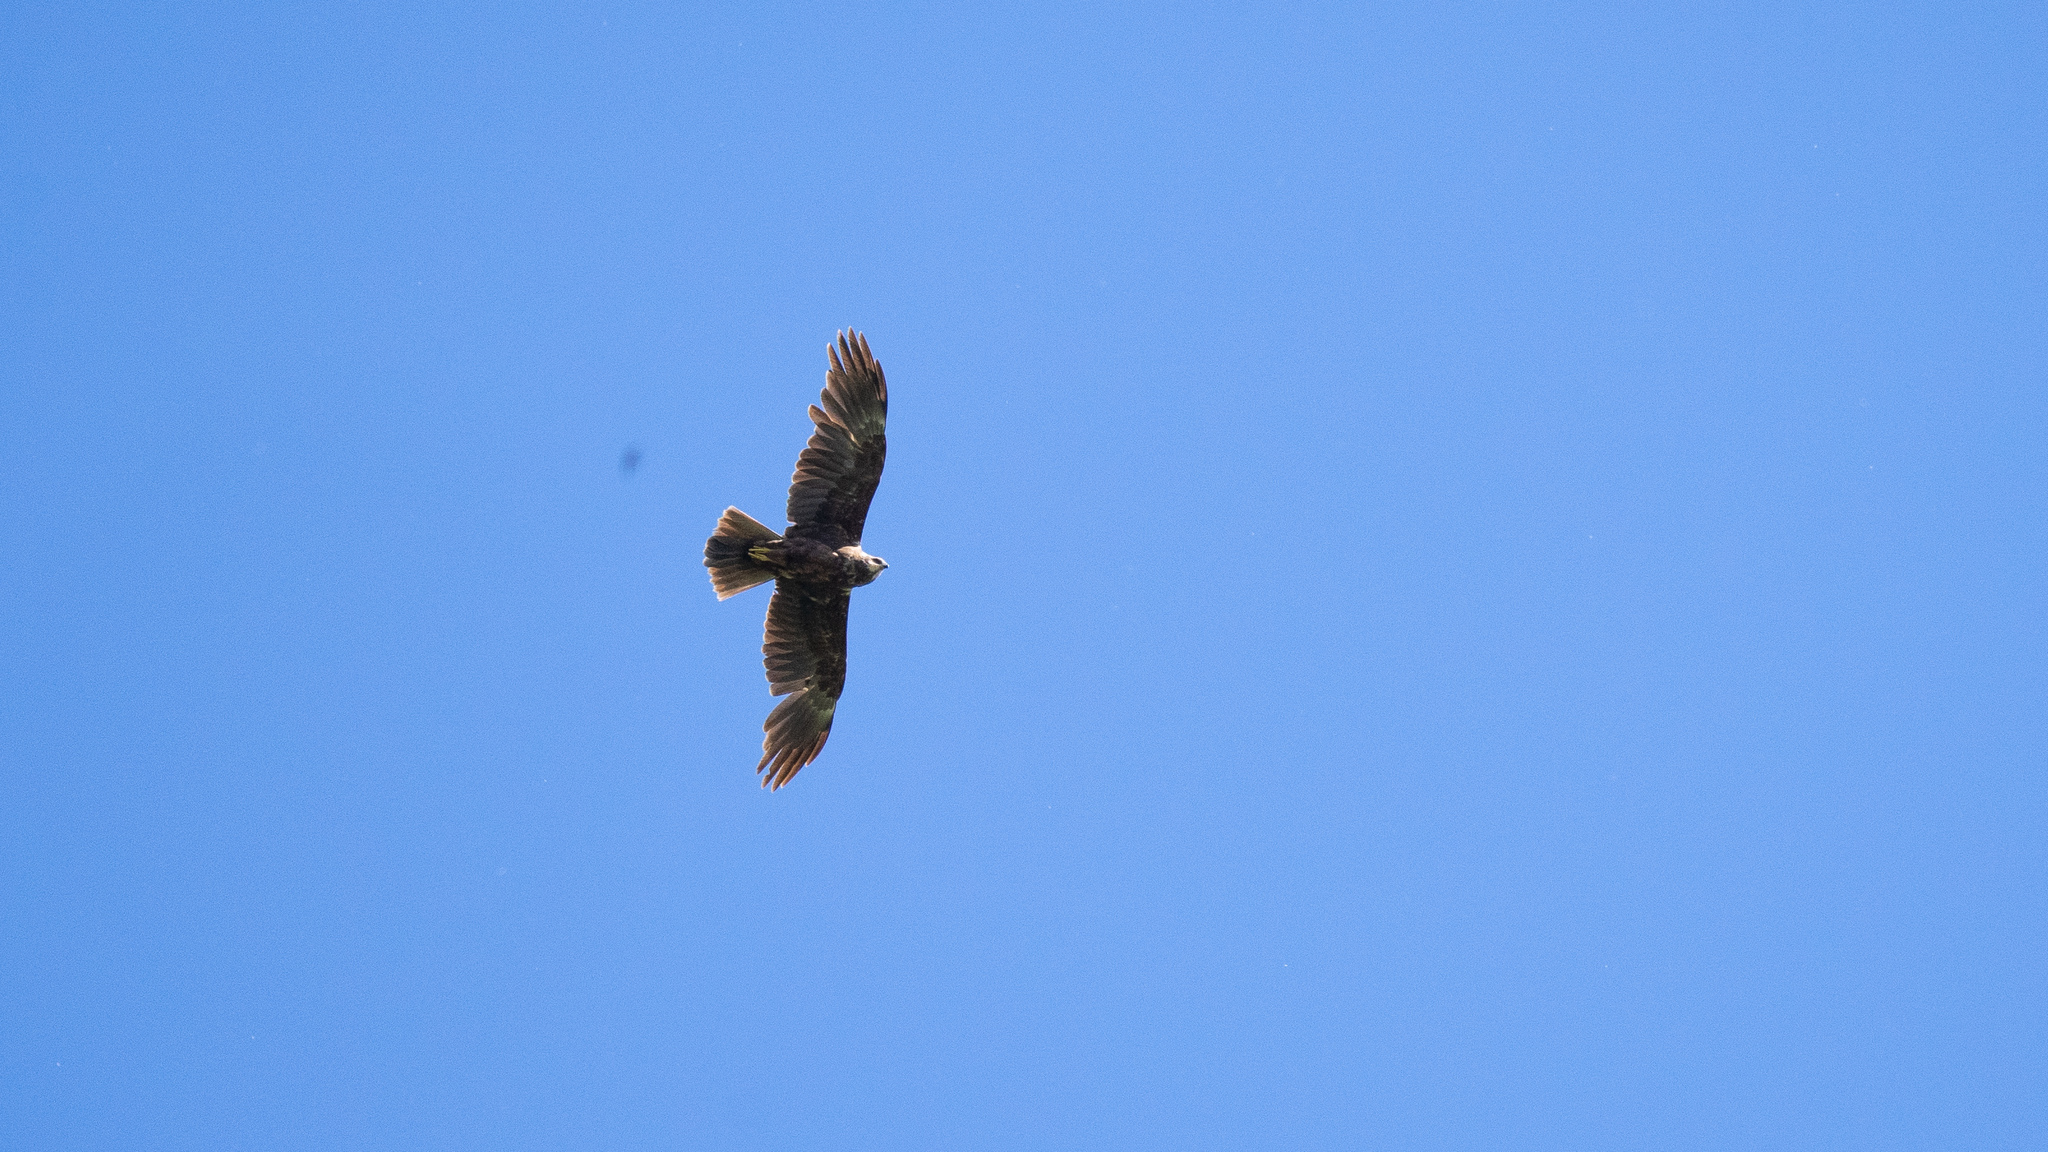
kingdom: Animalia
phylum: Chordata
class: Aves
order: Accipitriformes
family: Accipitridae
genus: Circus
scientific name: Circus aeruginosus
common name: Western marsh harrier
